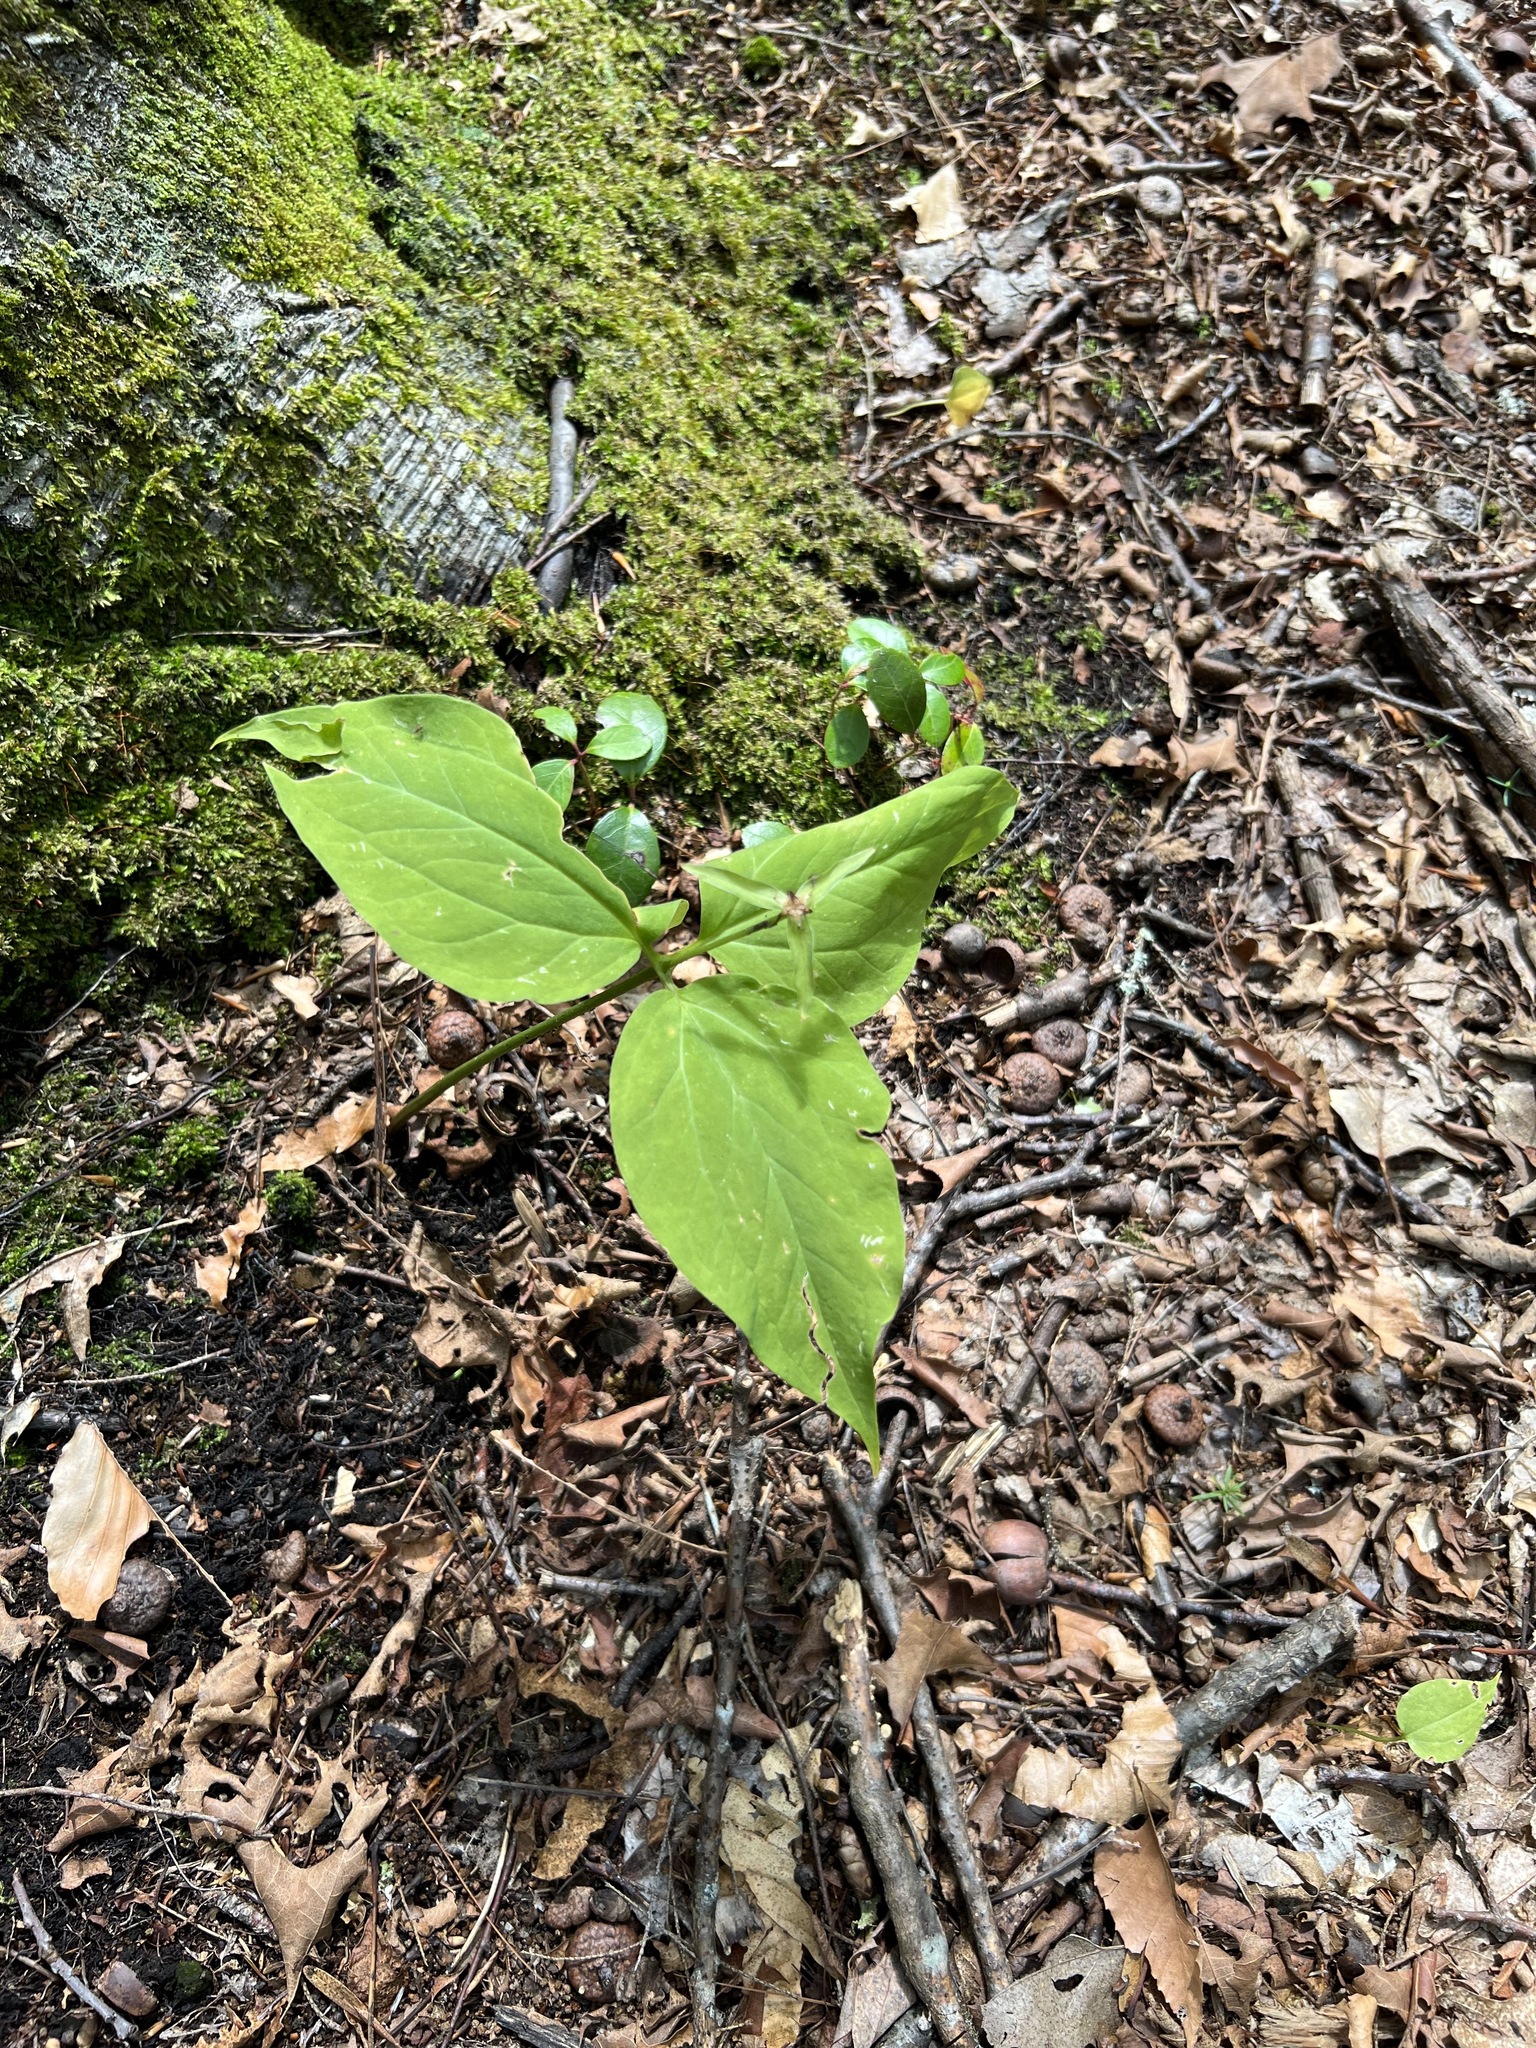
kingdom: Plantae
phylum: Tracheophyta
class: Liliopsida
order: Liliales
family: Melanthiaceae
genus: Trillium
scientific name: Trillium undulatum
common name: Paint trillium
